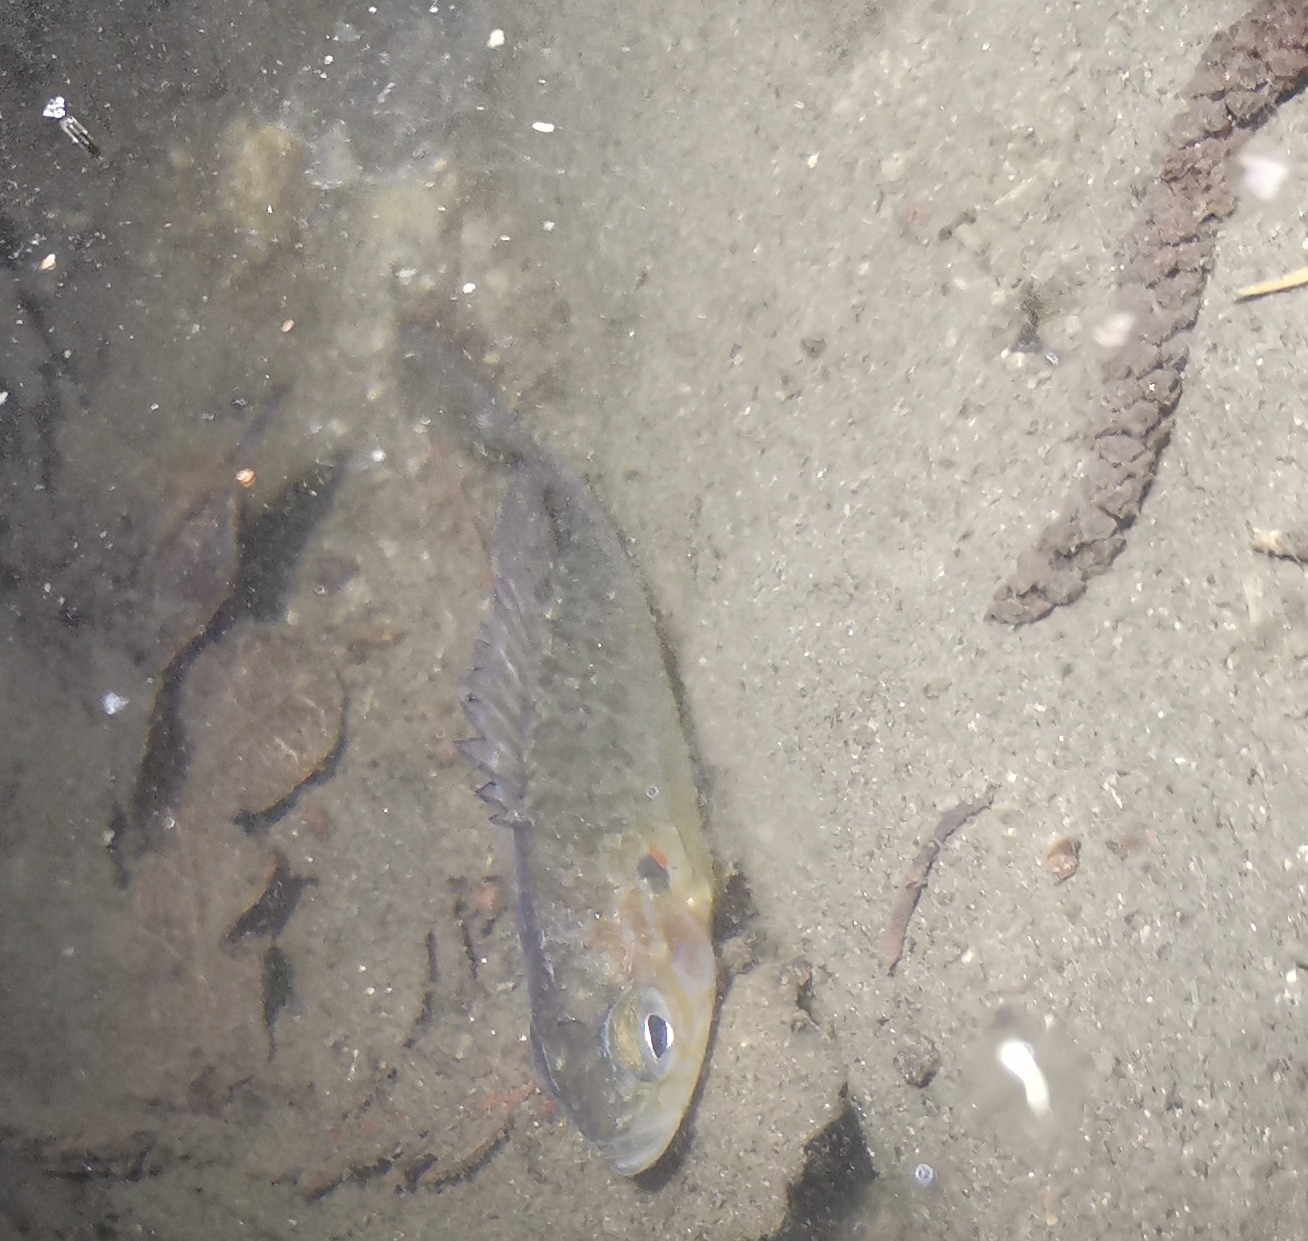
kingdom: Animalia
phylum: Chordata
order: Perciformes
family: Centrarchidae
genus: Lepomis
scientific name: Lepomis gibbosus
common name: Pumpkinseed
